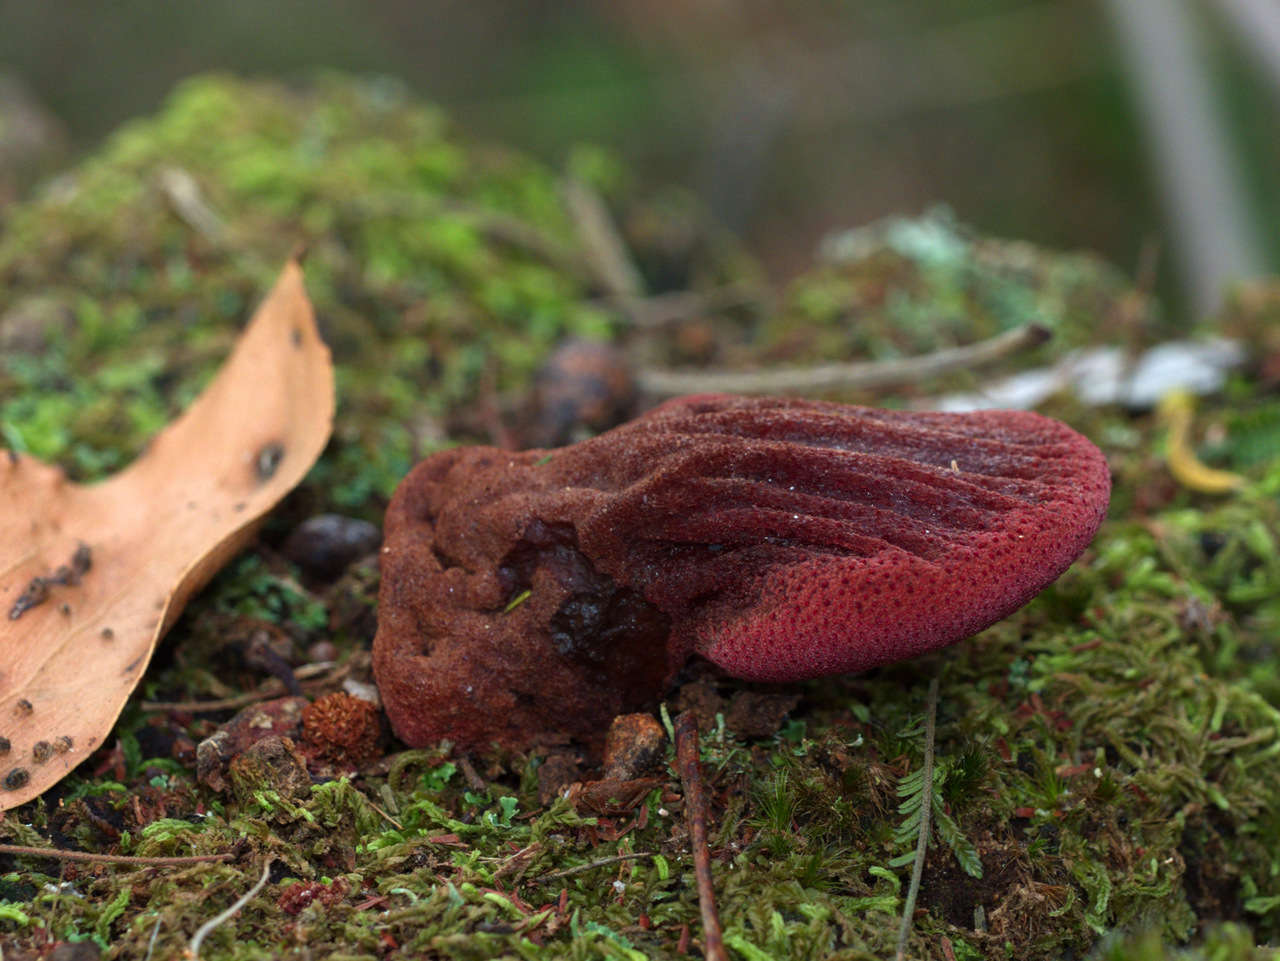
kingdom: Fungi
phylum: Basidiomycota
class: Agaricomycetes
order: Agaricales
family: Fistulinaceae
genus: Fistulina
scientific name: Fistulina spiculifera
